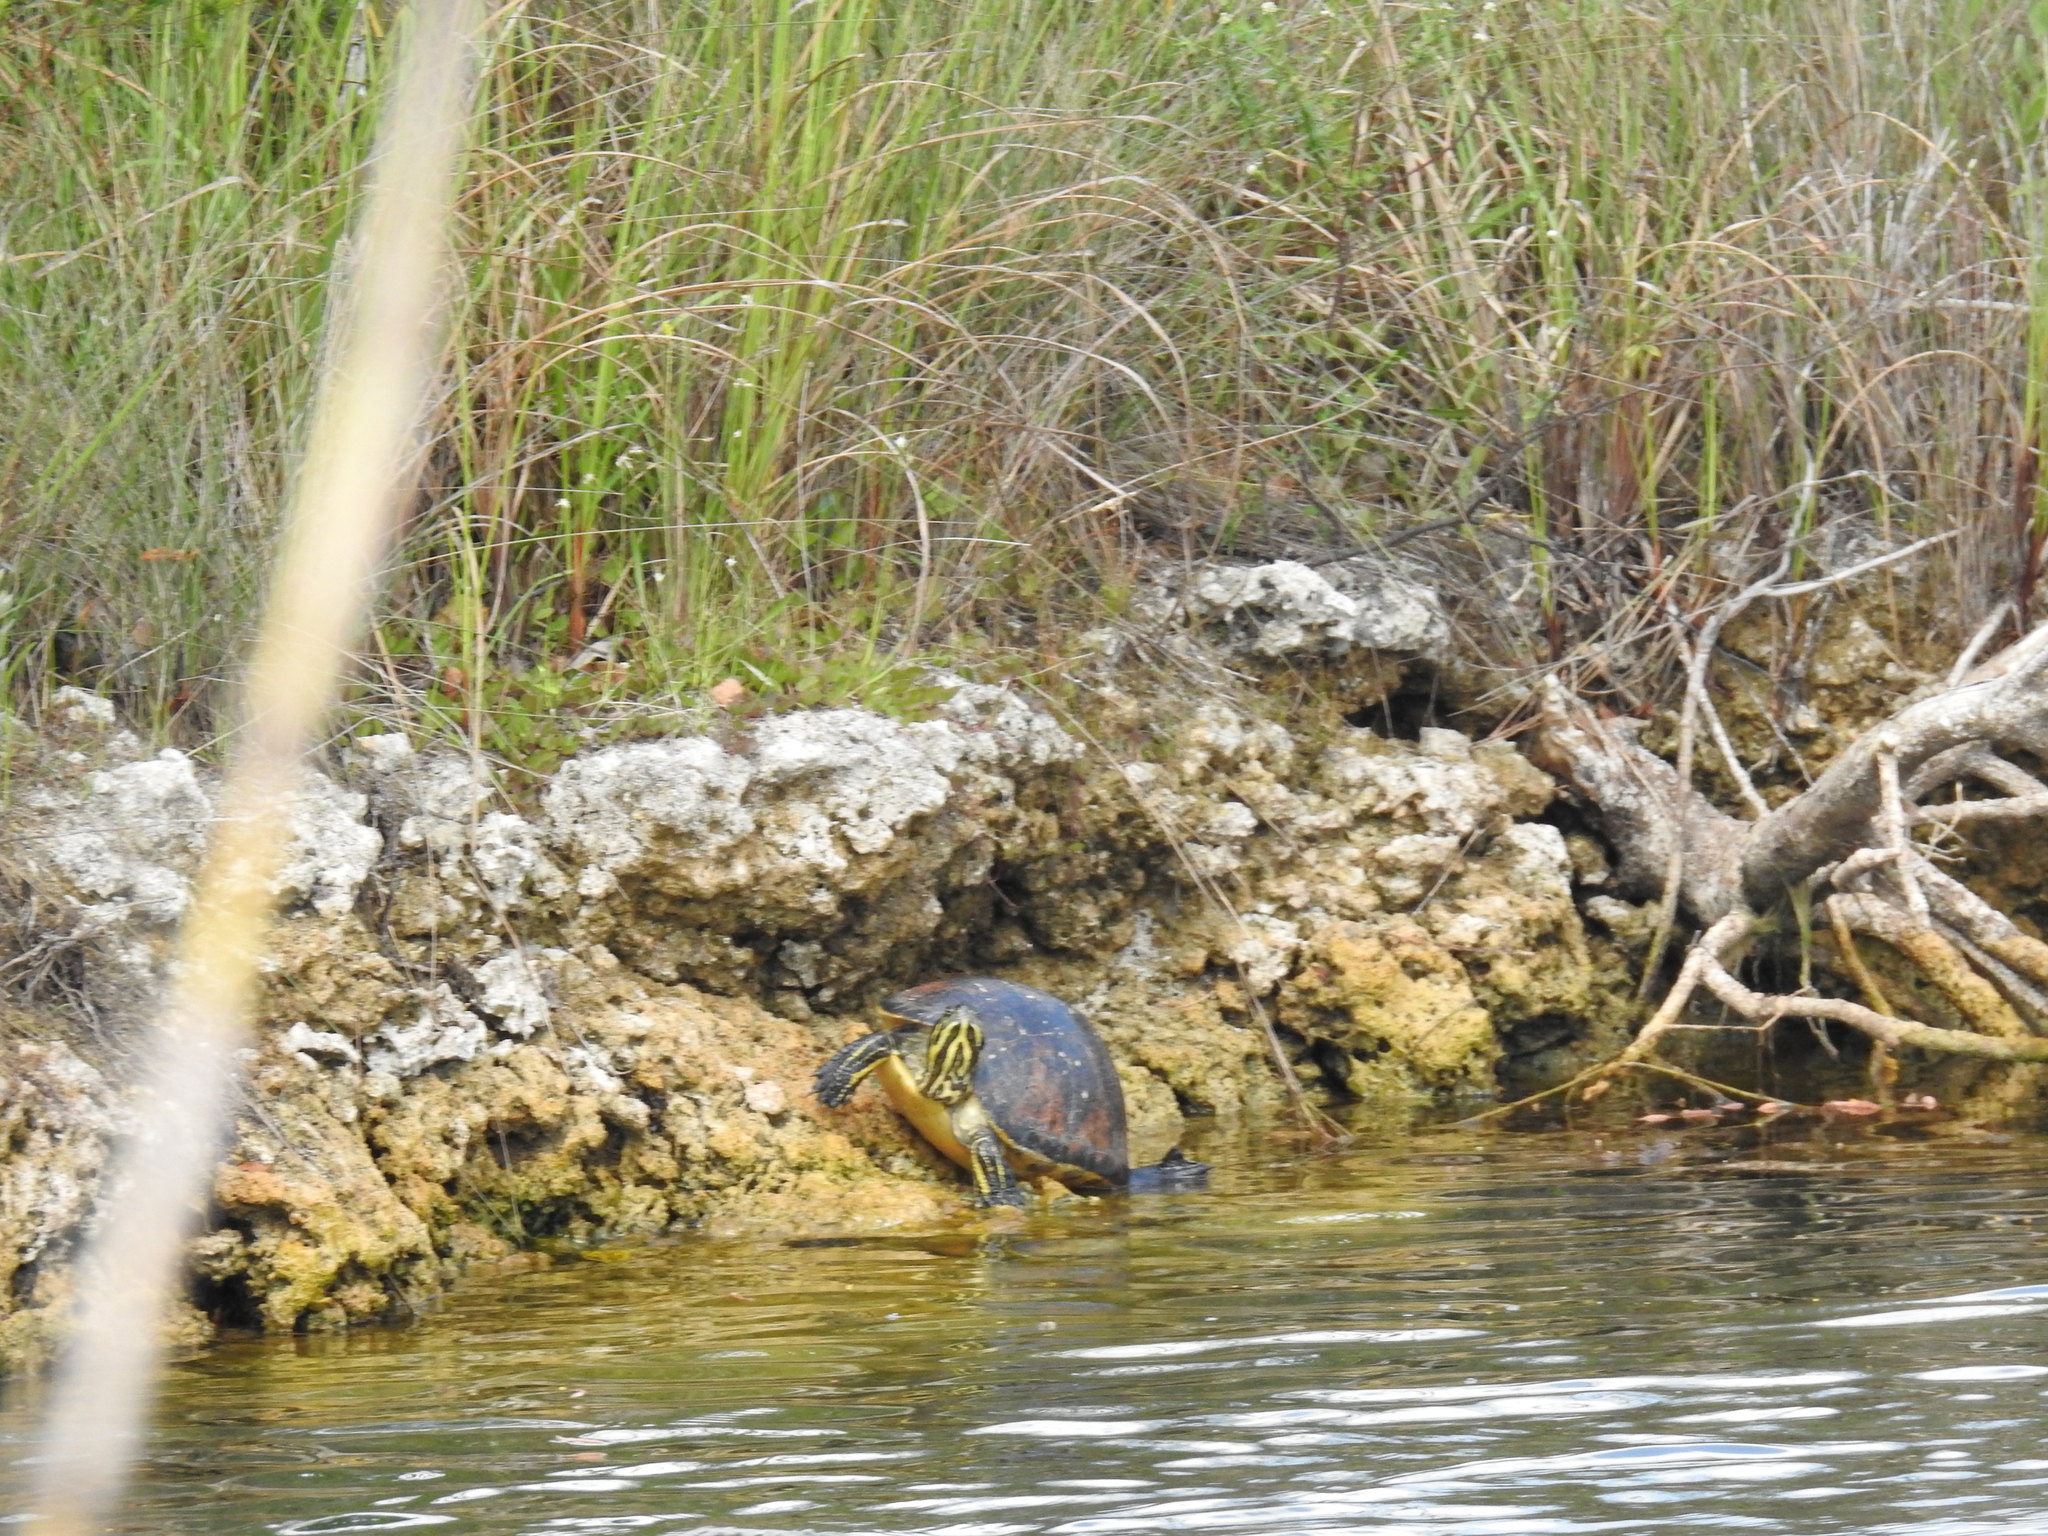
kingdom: Animalia
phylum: Chordata
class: Testudines
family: Emydidae
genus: Pseudemys
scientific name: Pseudemys nelsoni
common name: Florida red-bellied turtle
